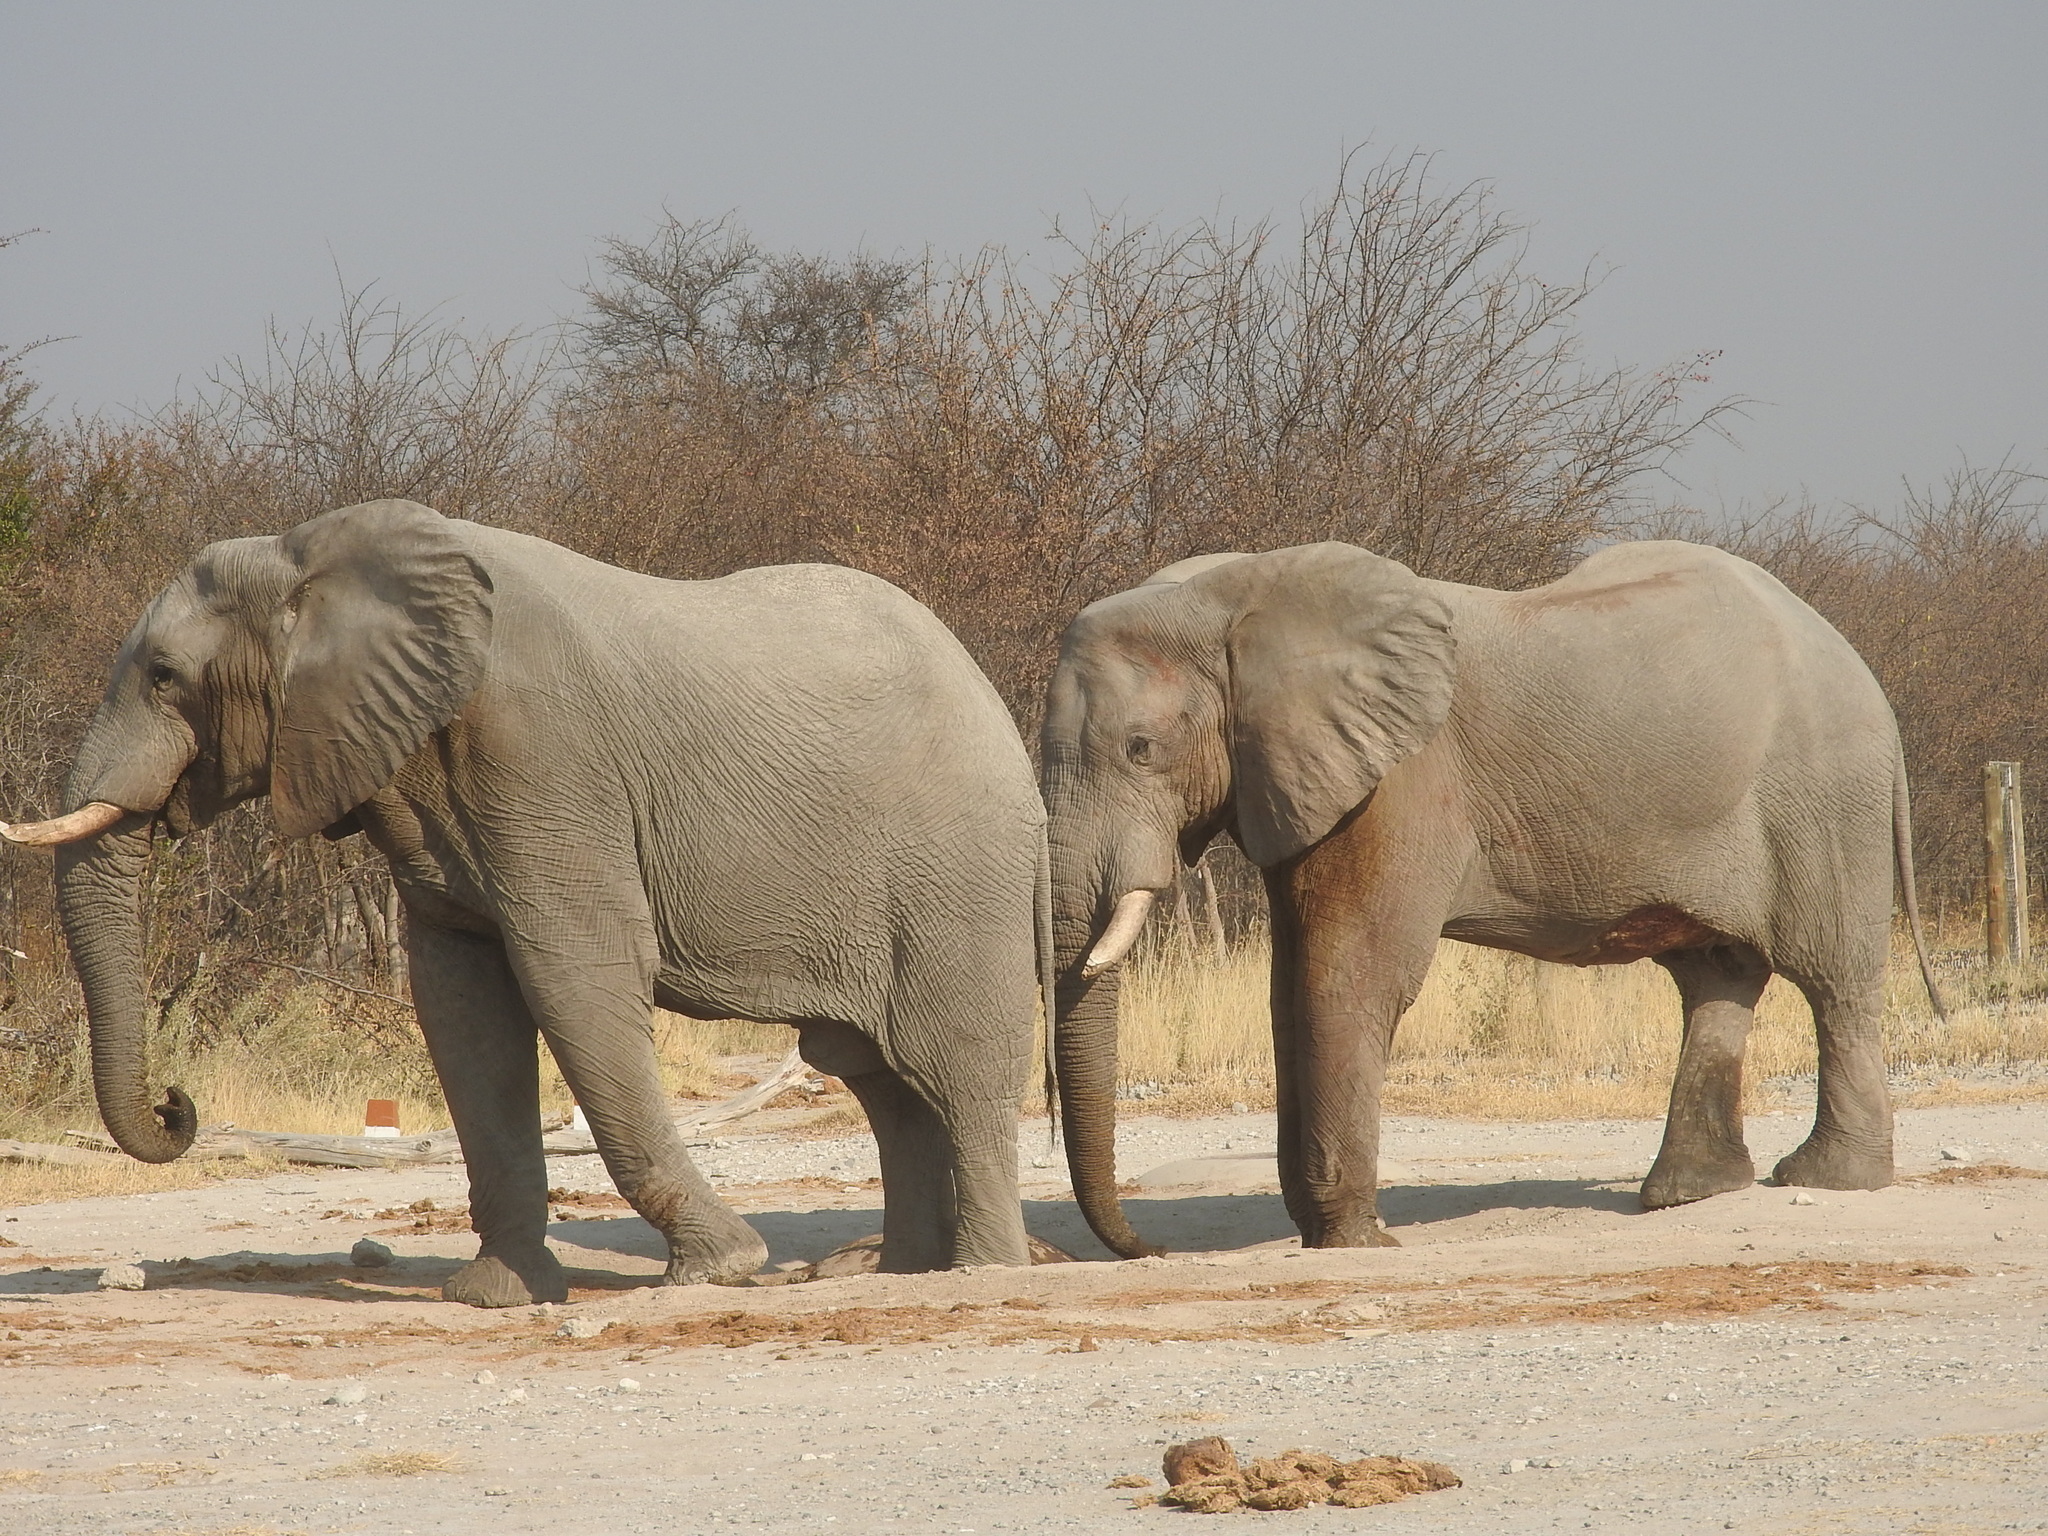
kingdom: Animalia
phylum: Chordata
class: Mammalia
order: Proboscidea
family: Elephantidae
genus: Loxodonta
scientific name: Loxodonta africana
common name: African elephant
